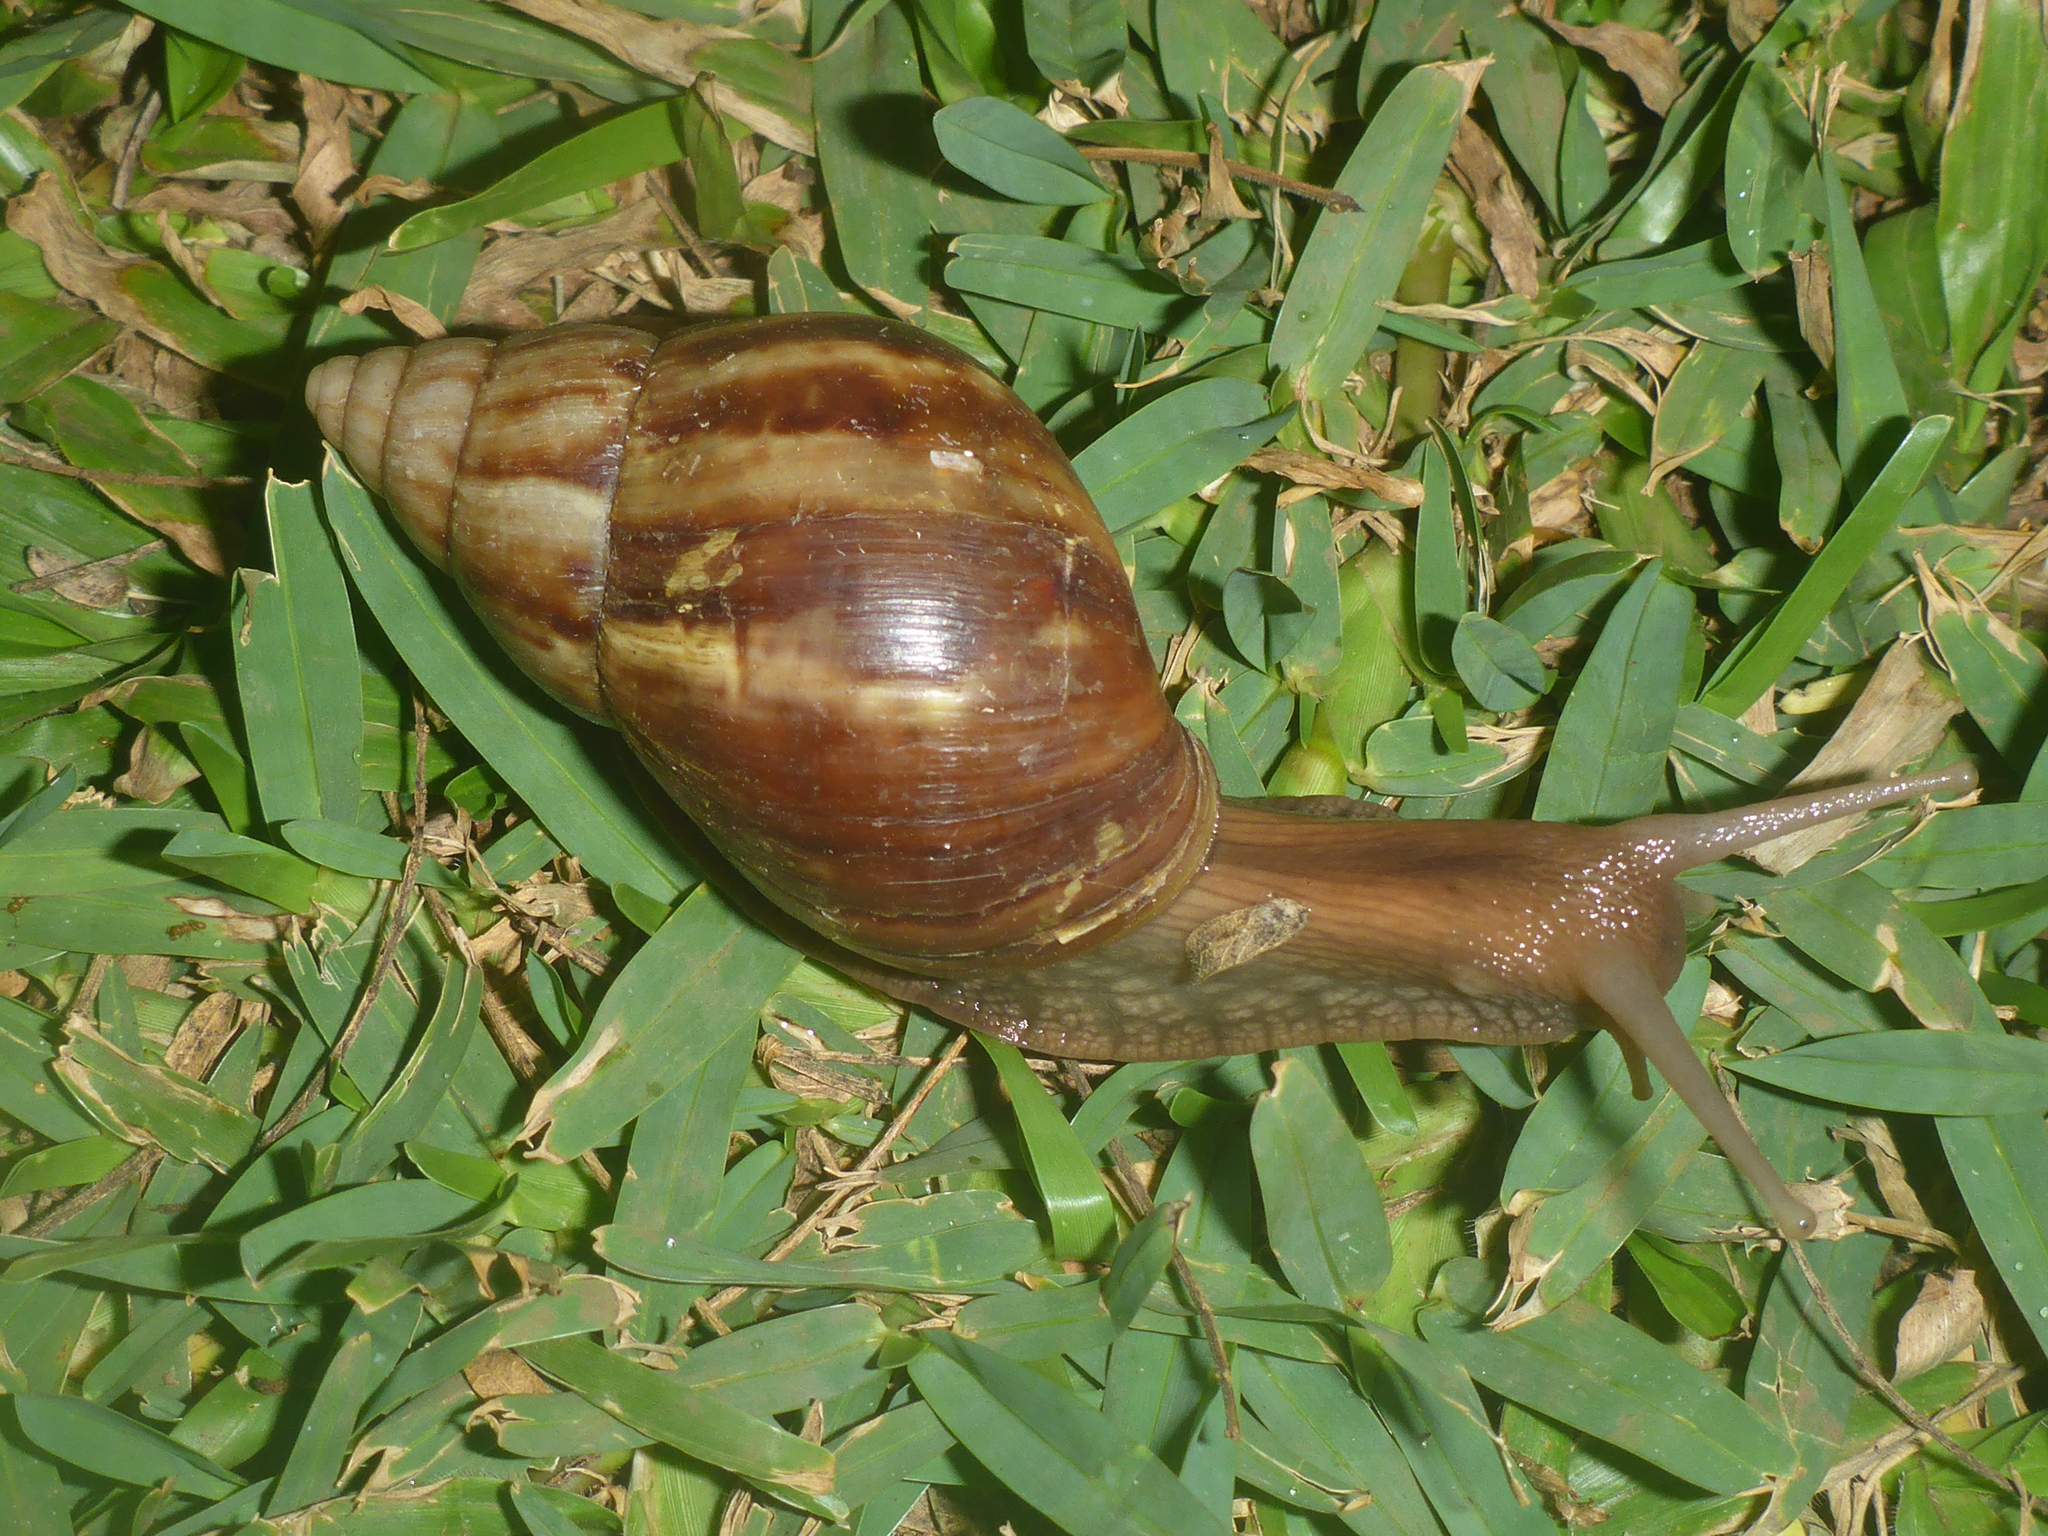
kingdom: Animalia
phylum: Mollusca
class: Gastropoda
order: Stylommatophora
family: Achatinidae
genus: Lissachatina
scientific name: Lissachatina fulica
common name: Giant african snail
